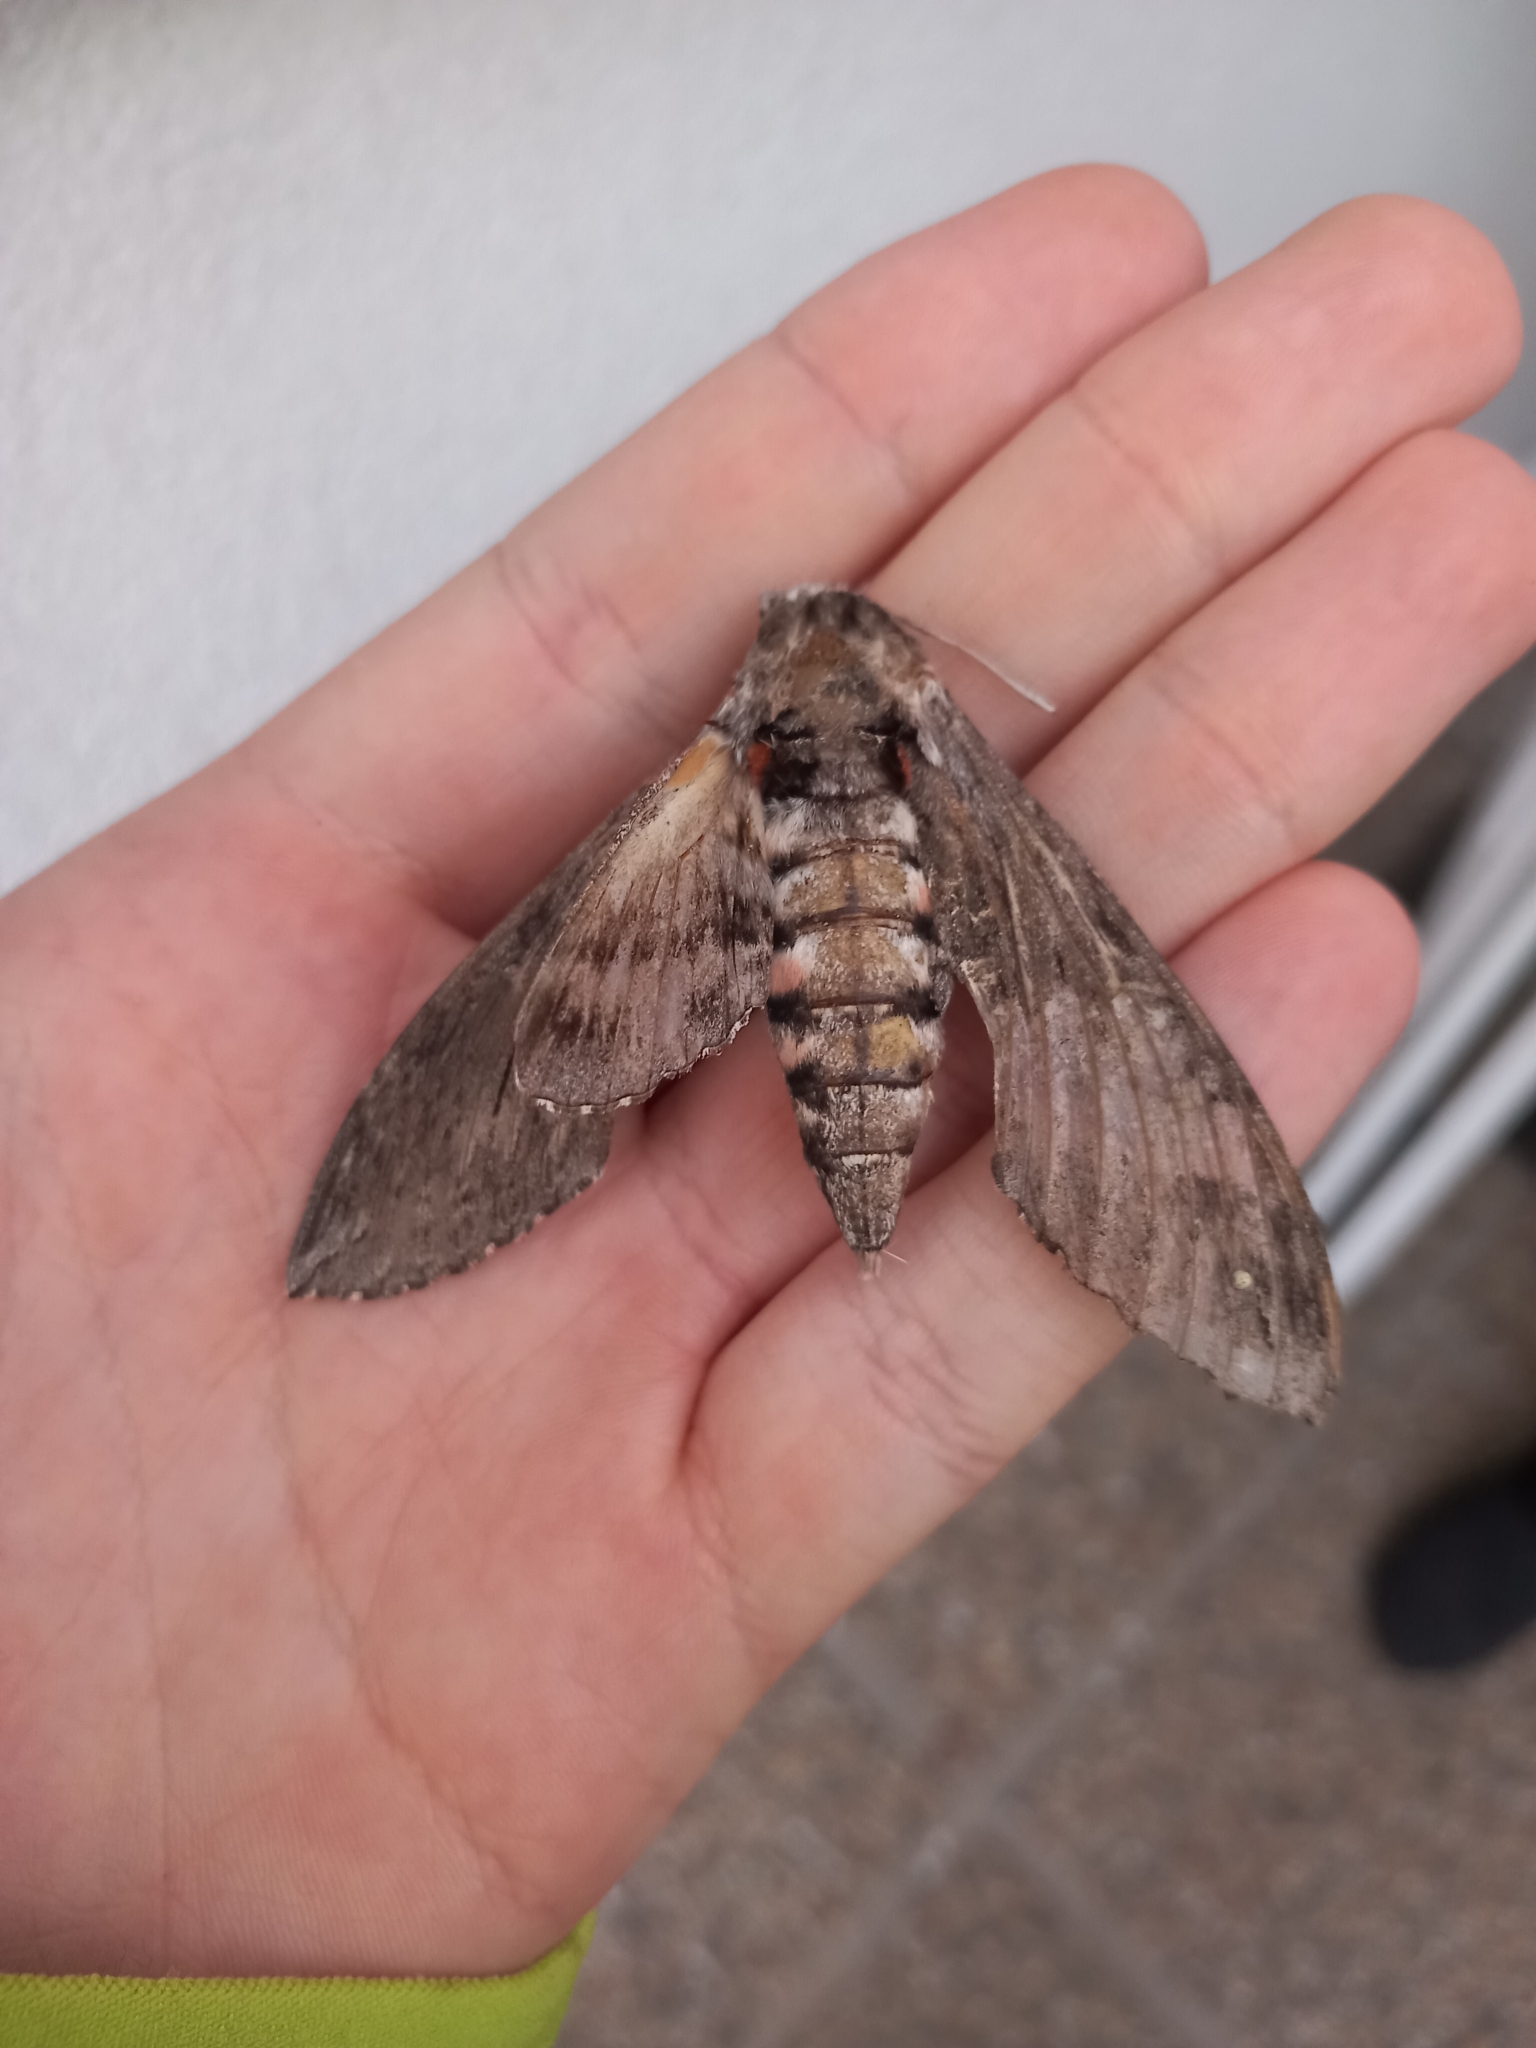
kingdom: Animalia
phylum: Arthropoda
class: Insecta
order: Lepidoptera
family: Sphingidae
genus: Agrius
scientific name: Agrius convolvuli
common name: Convolvulus hawkmoth
